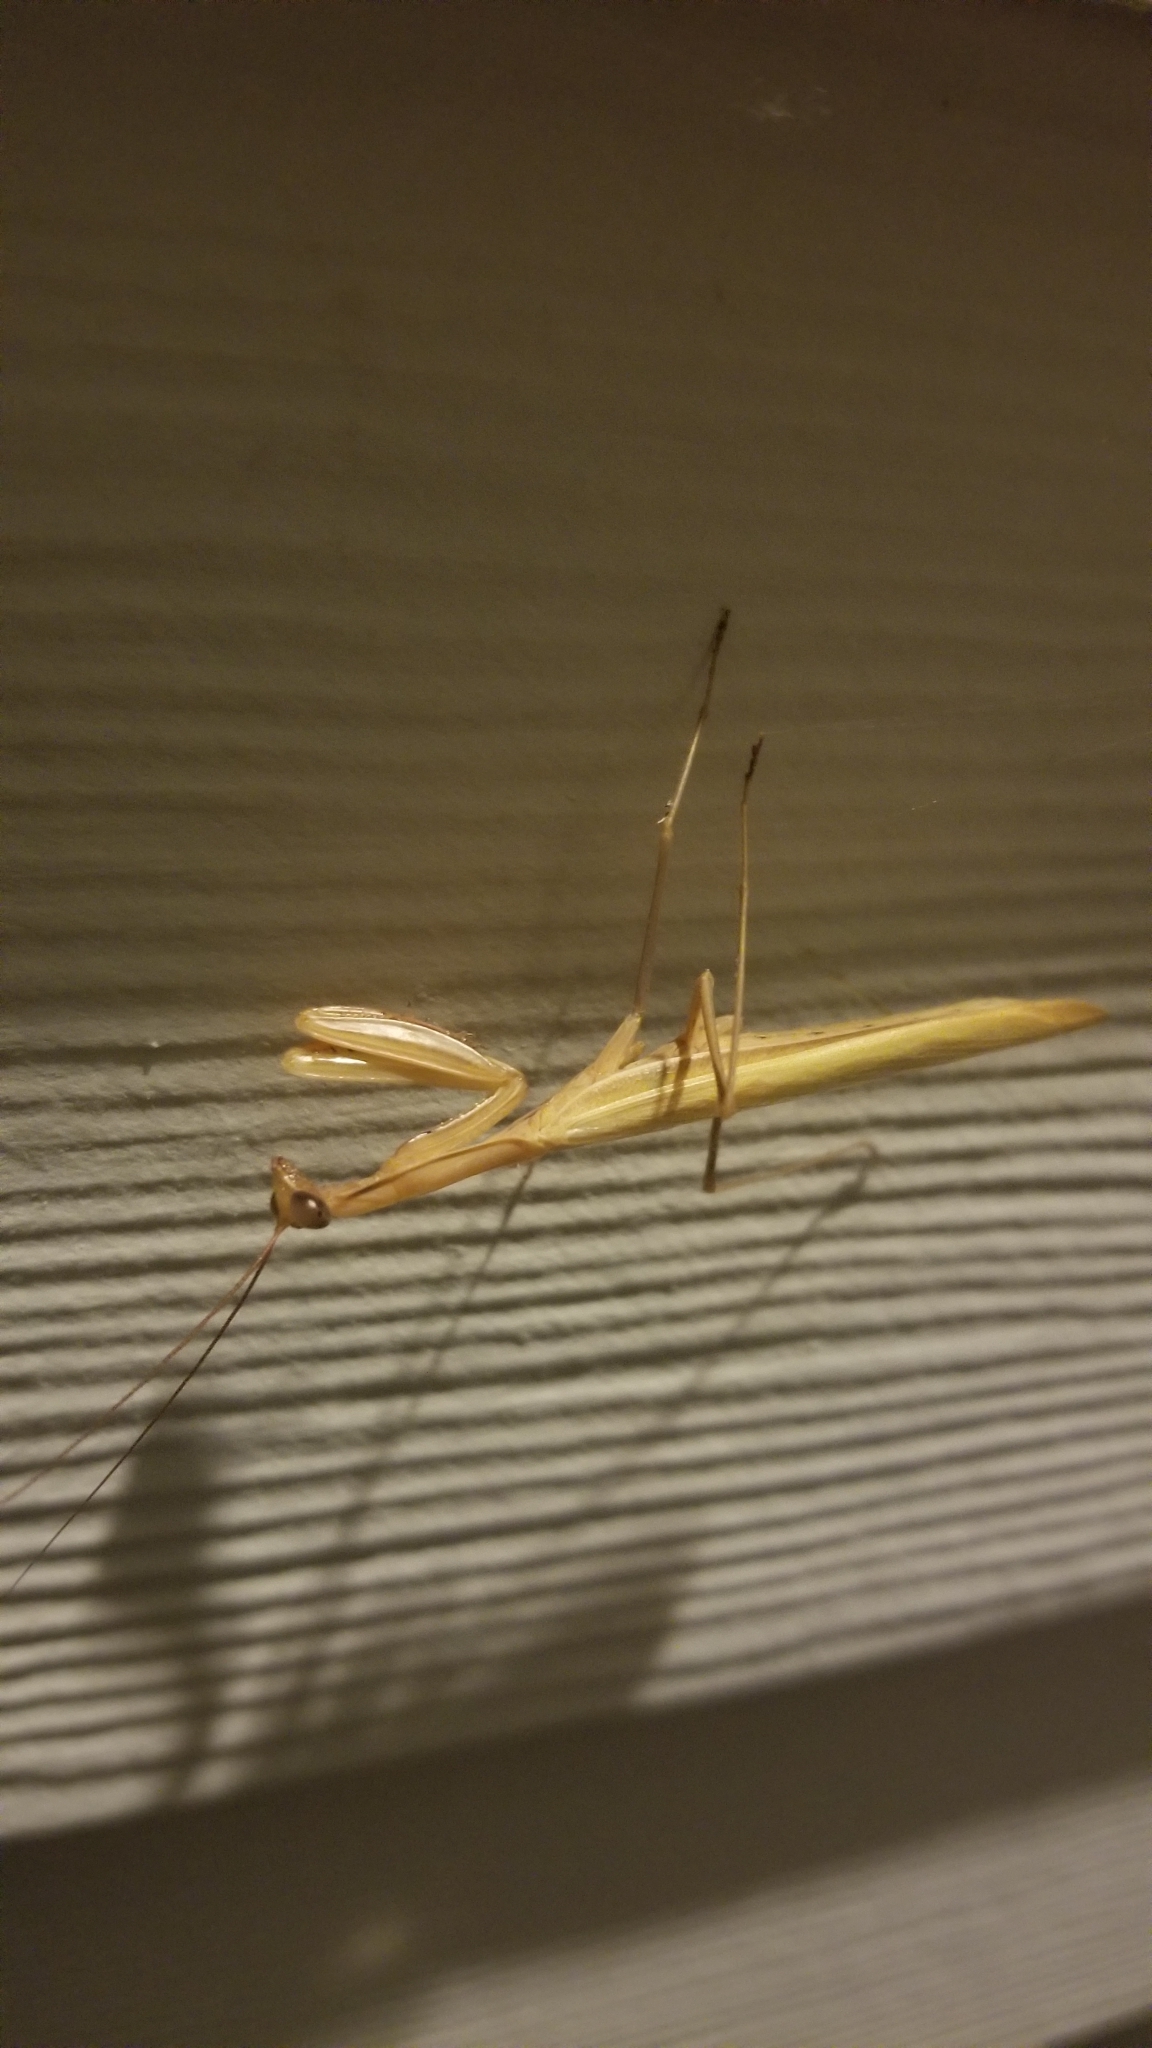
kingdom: Animalia
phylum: Arthropoda
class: Insecta
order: Mantodea
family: Mantidae
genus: Mantis
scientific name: Mantis religiosa
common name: Praying mantis
